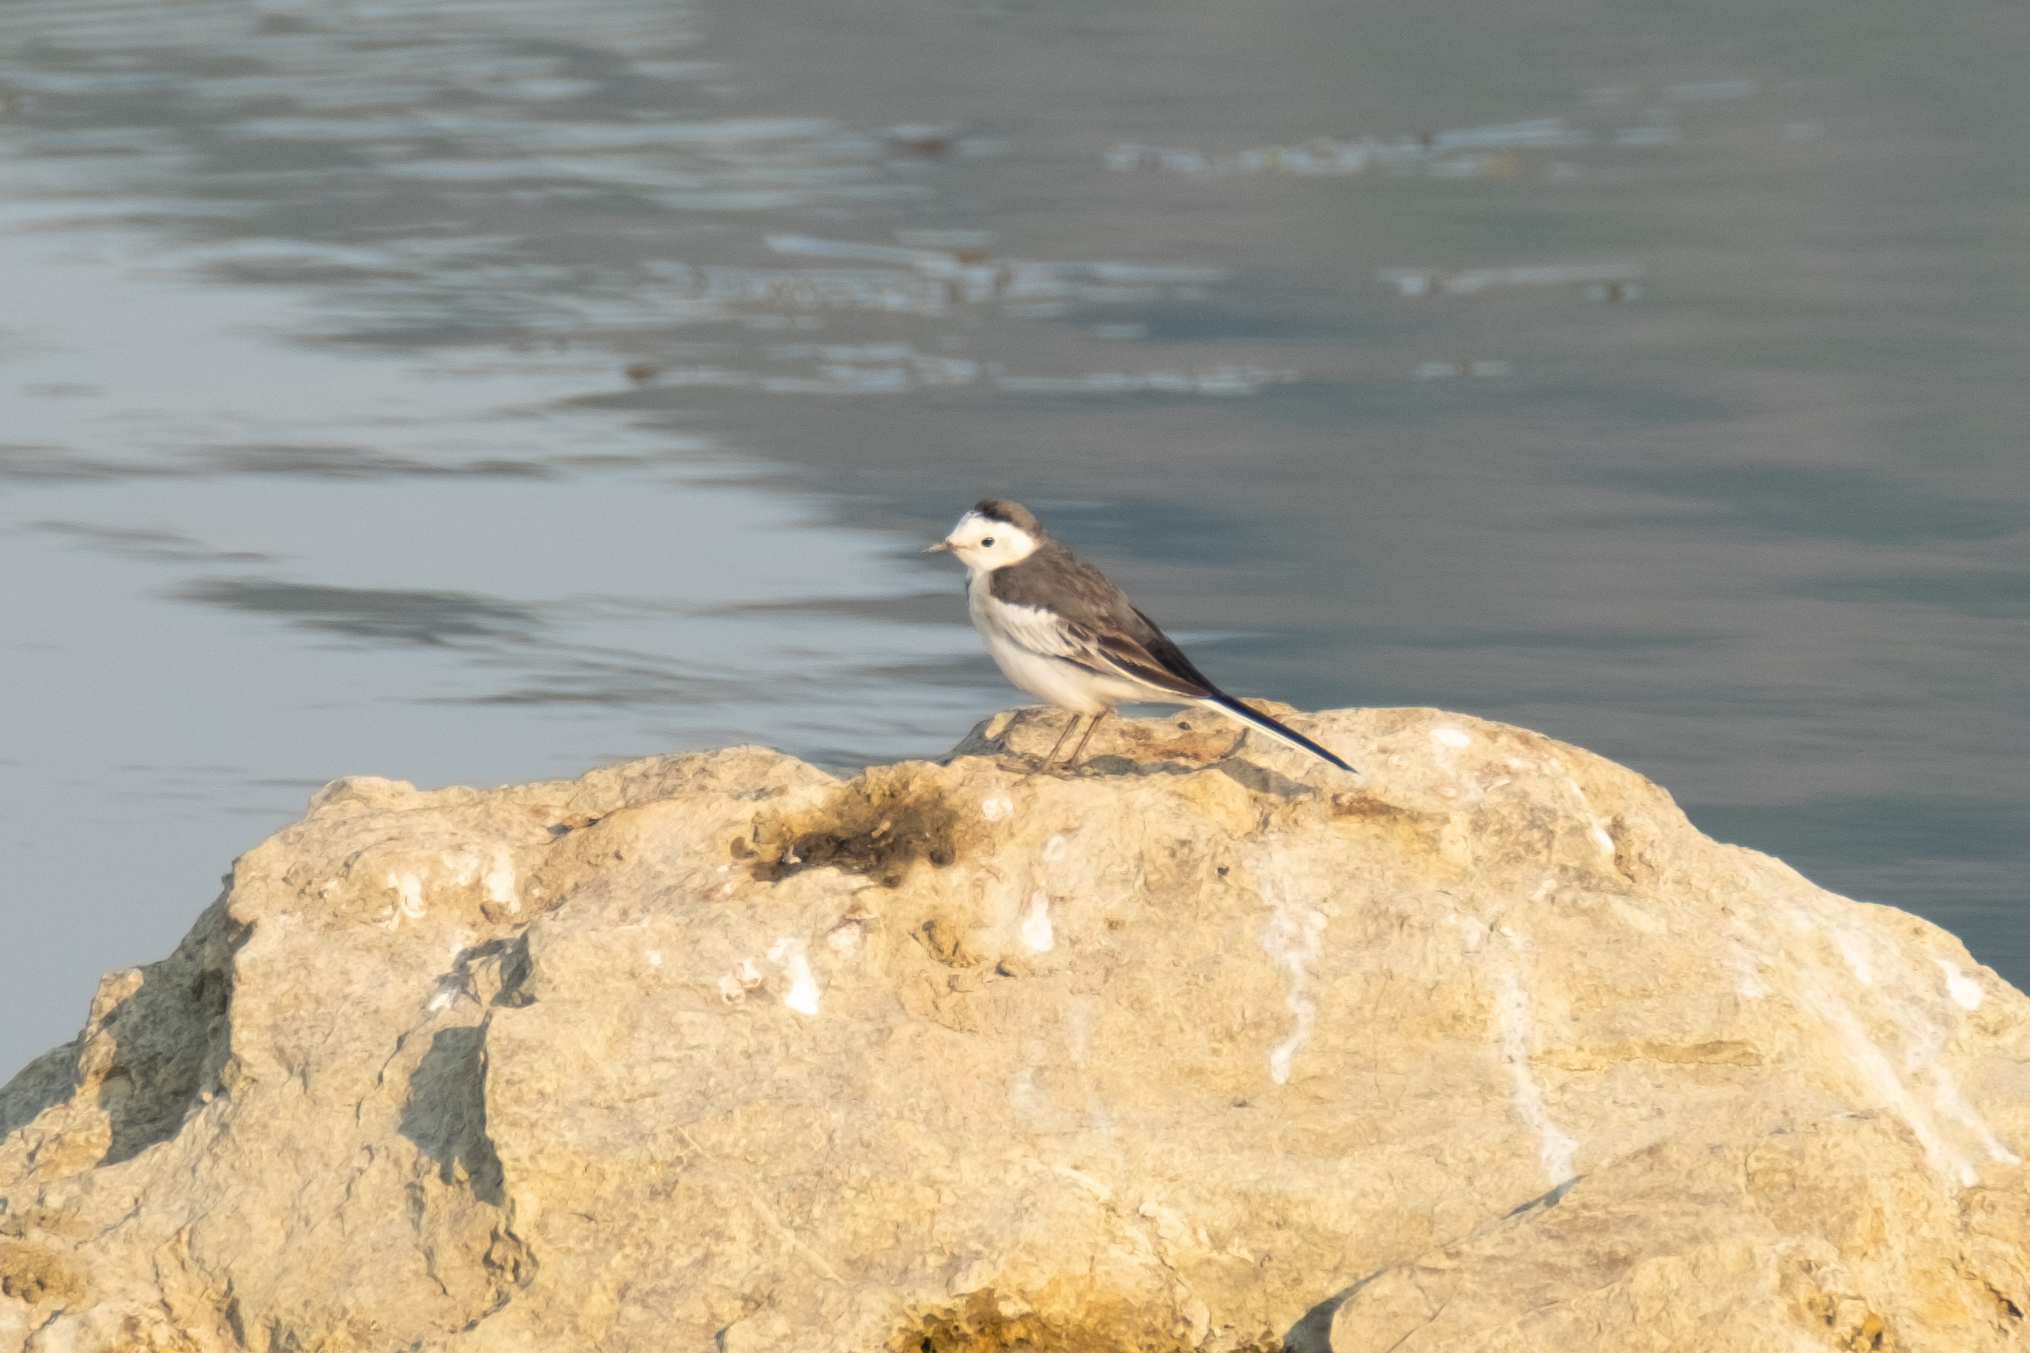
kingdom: Animalia
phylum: Chordata
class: Aves
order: Passeriformes
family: Motacillidae
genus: Motacilla
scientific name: Motacilla alba
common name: White wagtail
